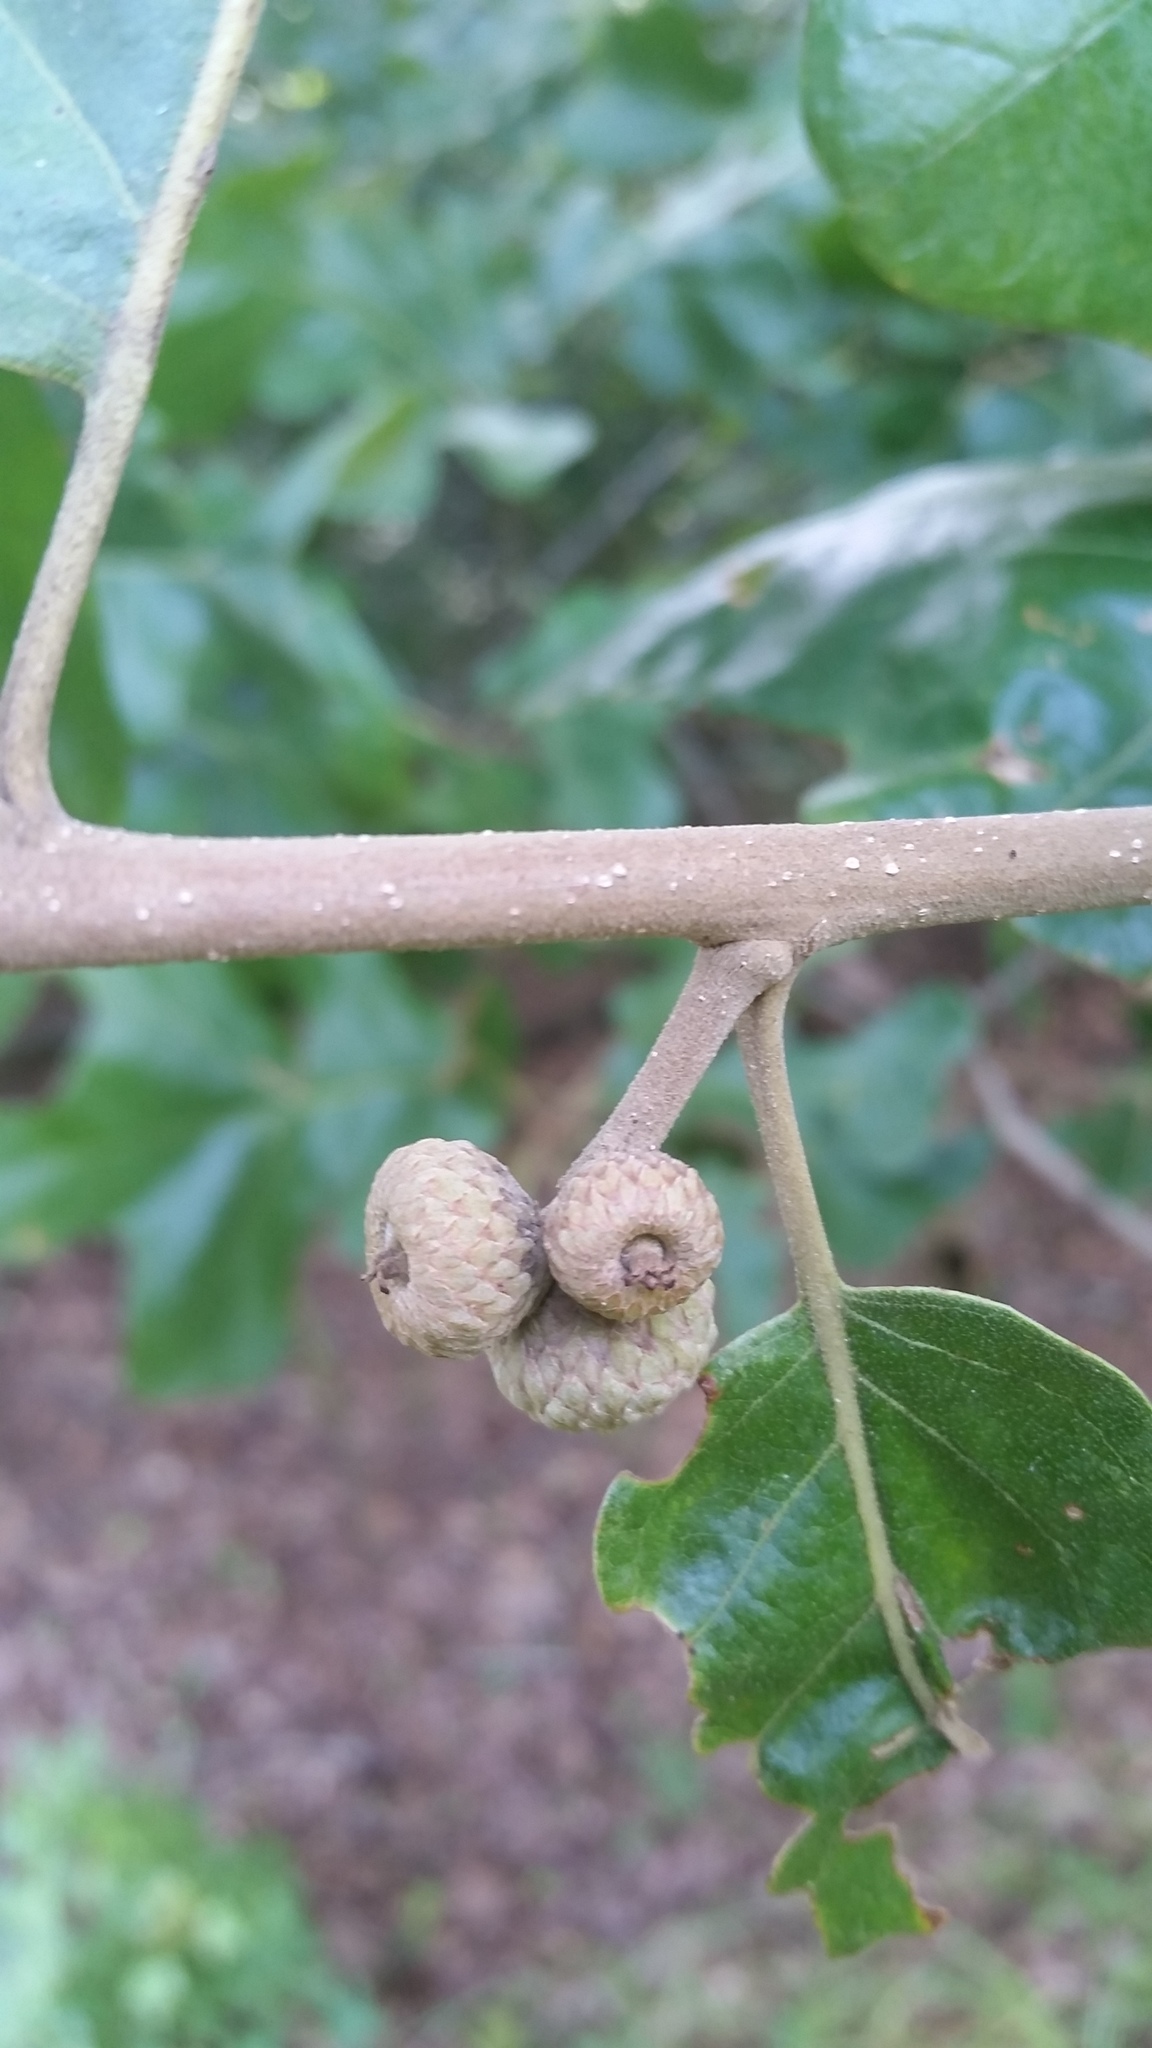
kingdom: Plantae
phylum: Tracheophyta
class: Magnoliopsida
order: Fagales
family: Fagaceae
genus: Quercus
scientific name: Quercus stellata
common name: Post oak
